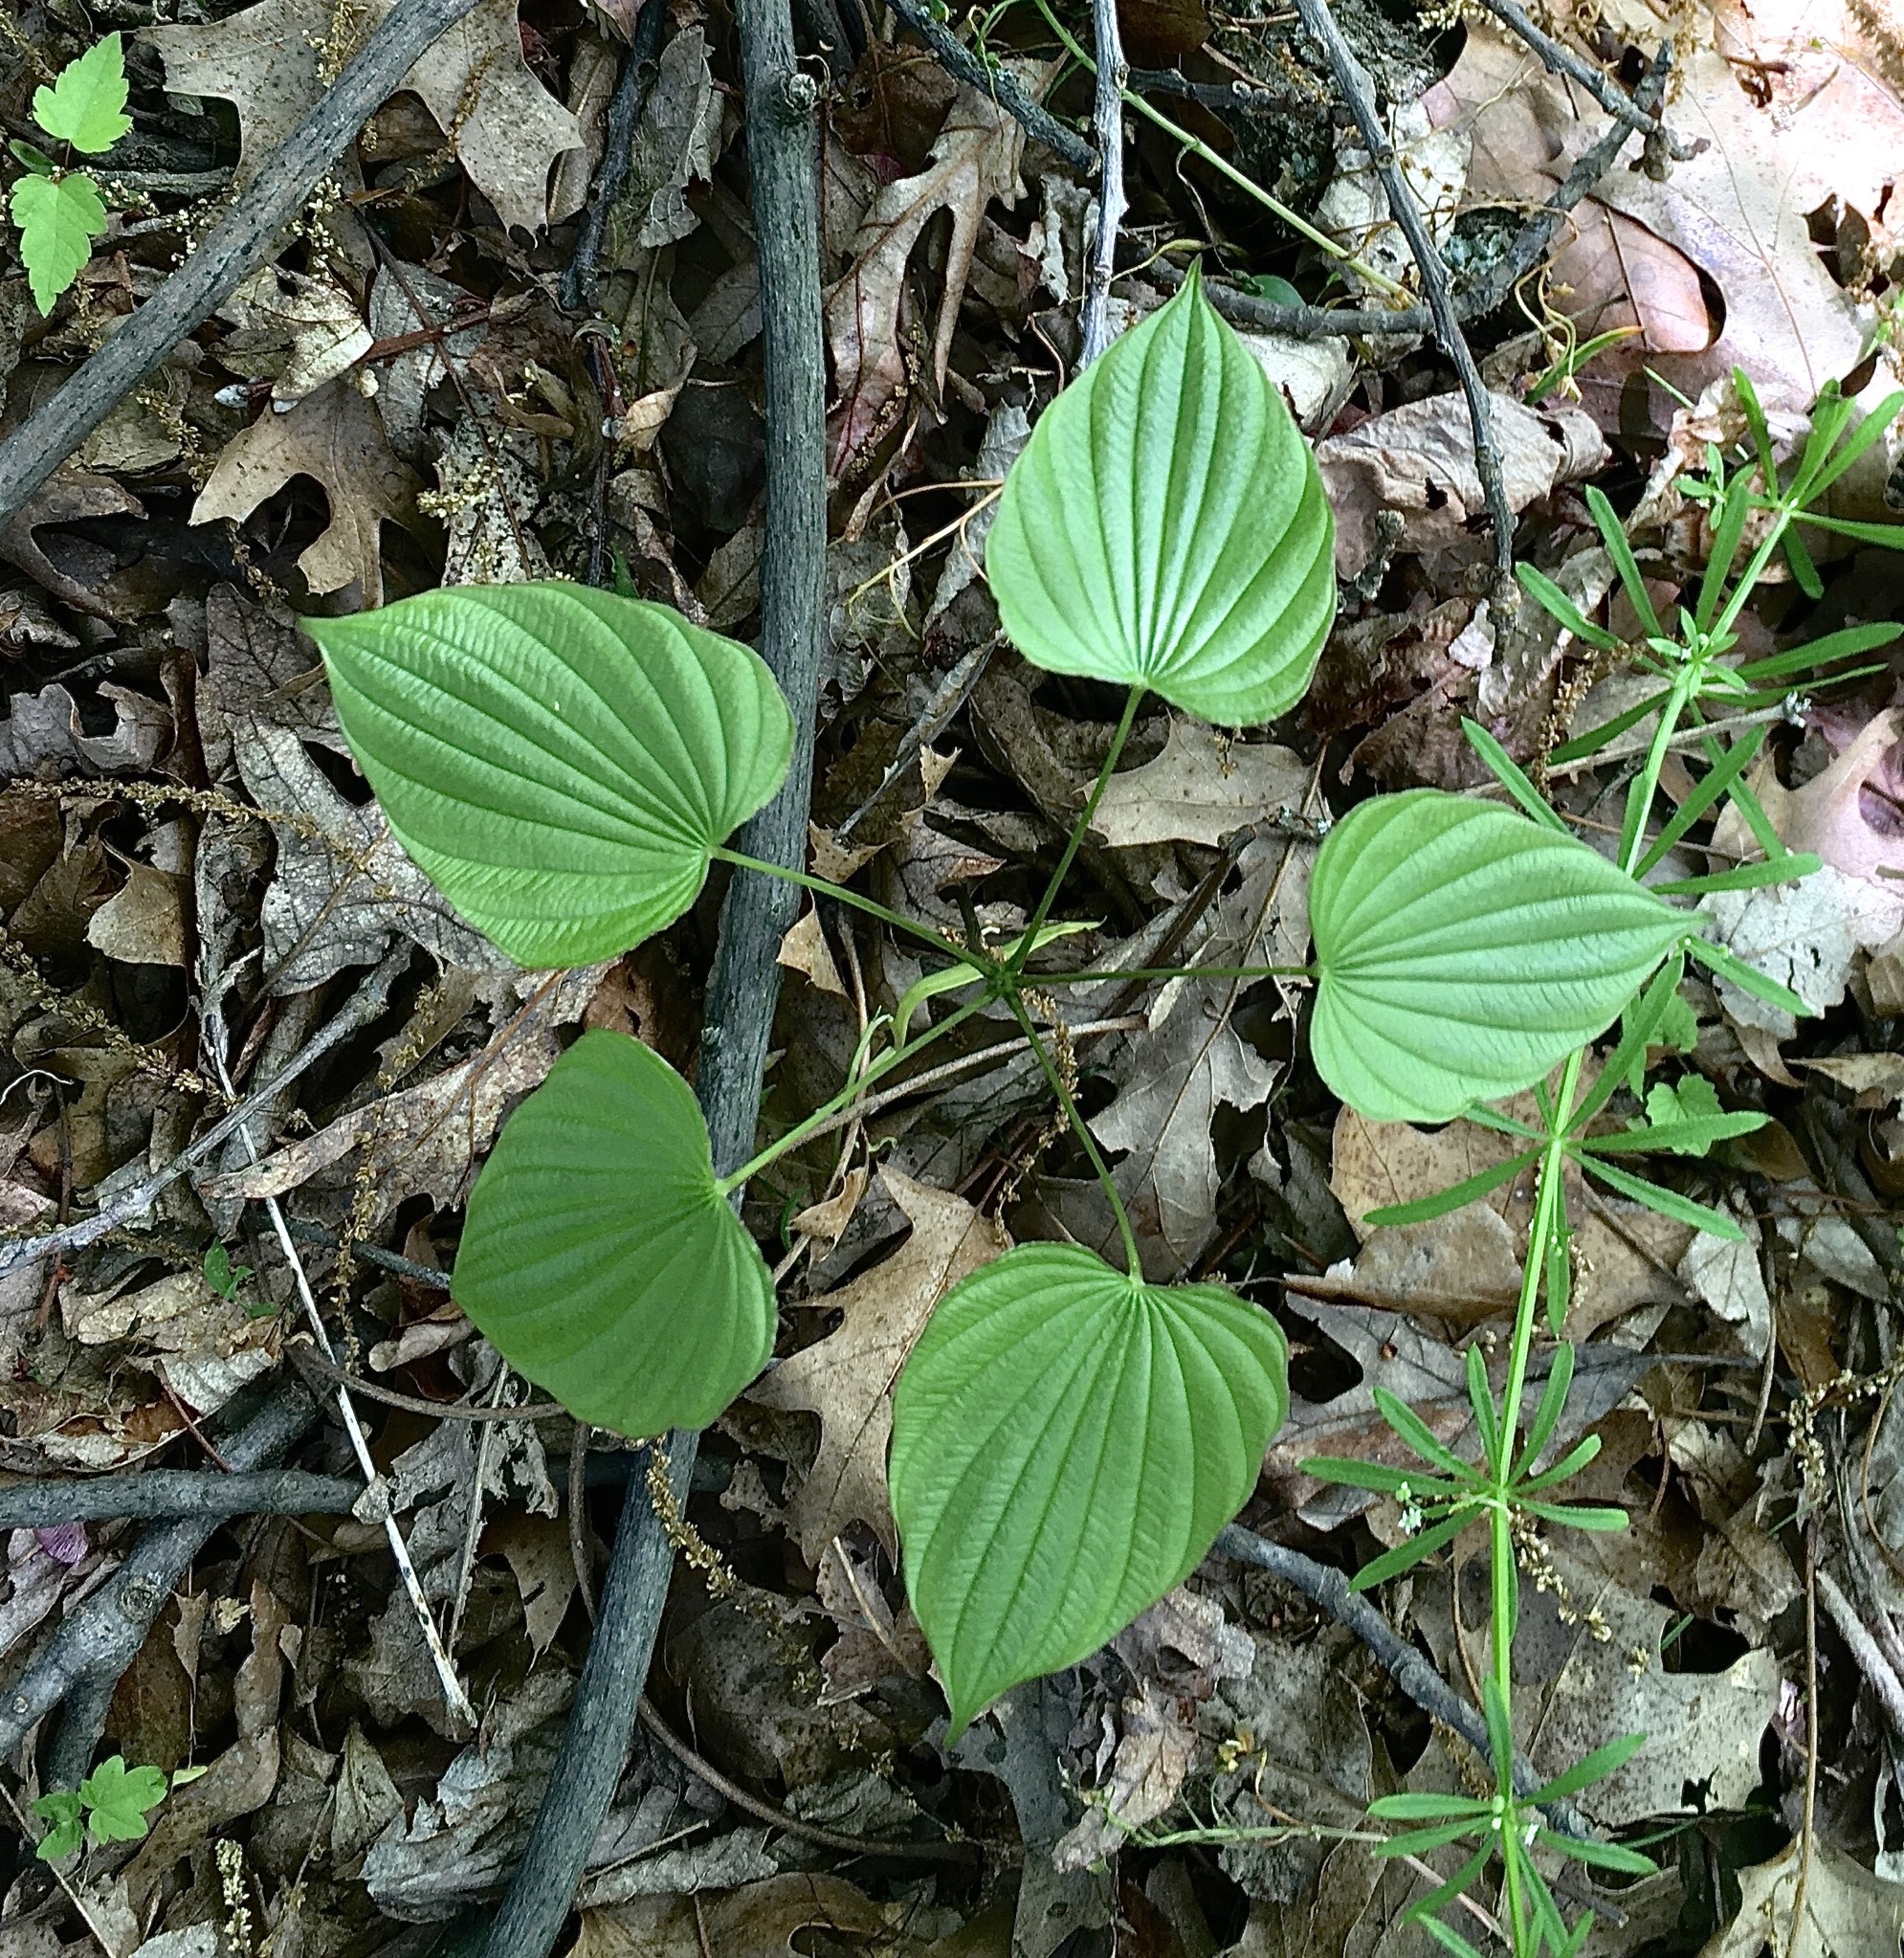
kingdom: Plantae
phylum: Tracheophyta
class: Liliopsida
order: Dioscoreales
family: Dioscoreaceae
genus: Dioscorea
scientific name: Dioscorea villosa
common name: Wild yam
